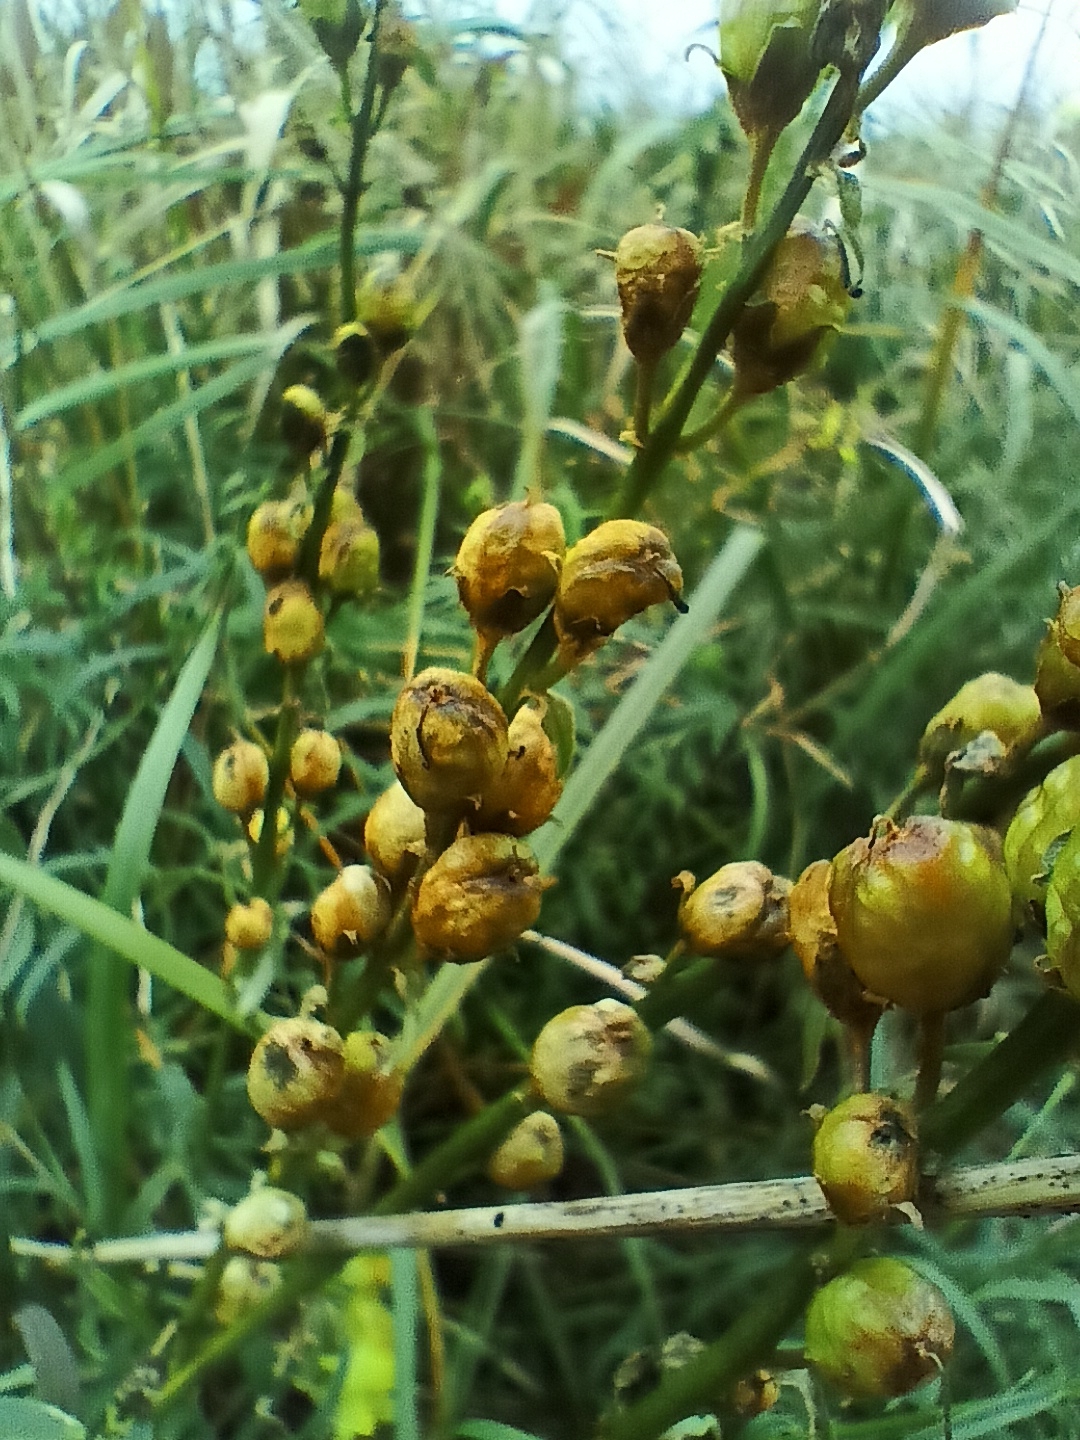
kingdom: Plantae
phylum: Tracheophyta
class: Magnoliopsida
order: Lamiales
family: Plantaginaceae
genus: Linaria
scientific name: Linaria vulgaris
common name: Butter and eggs
